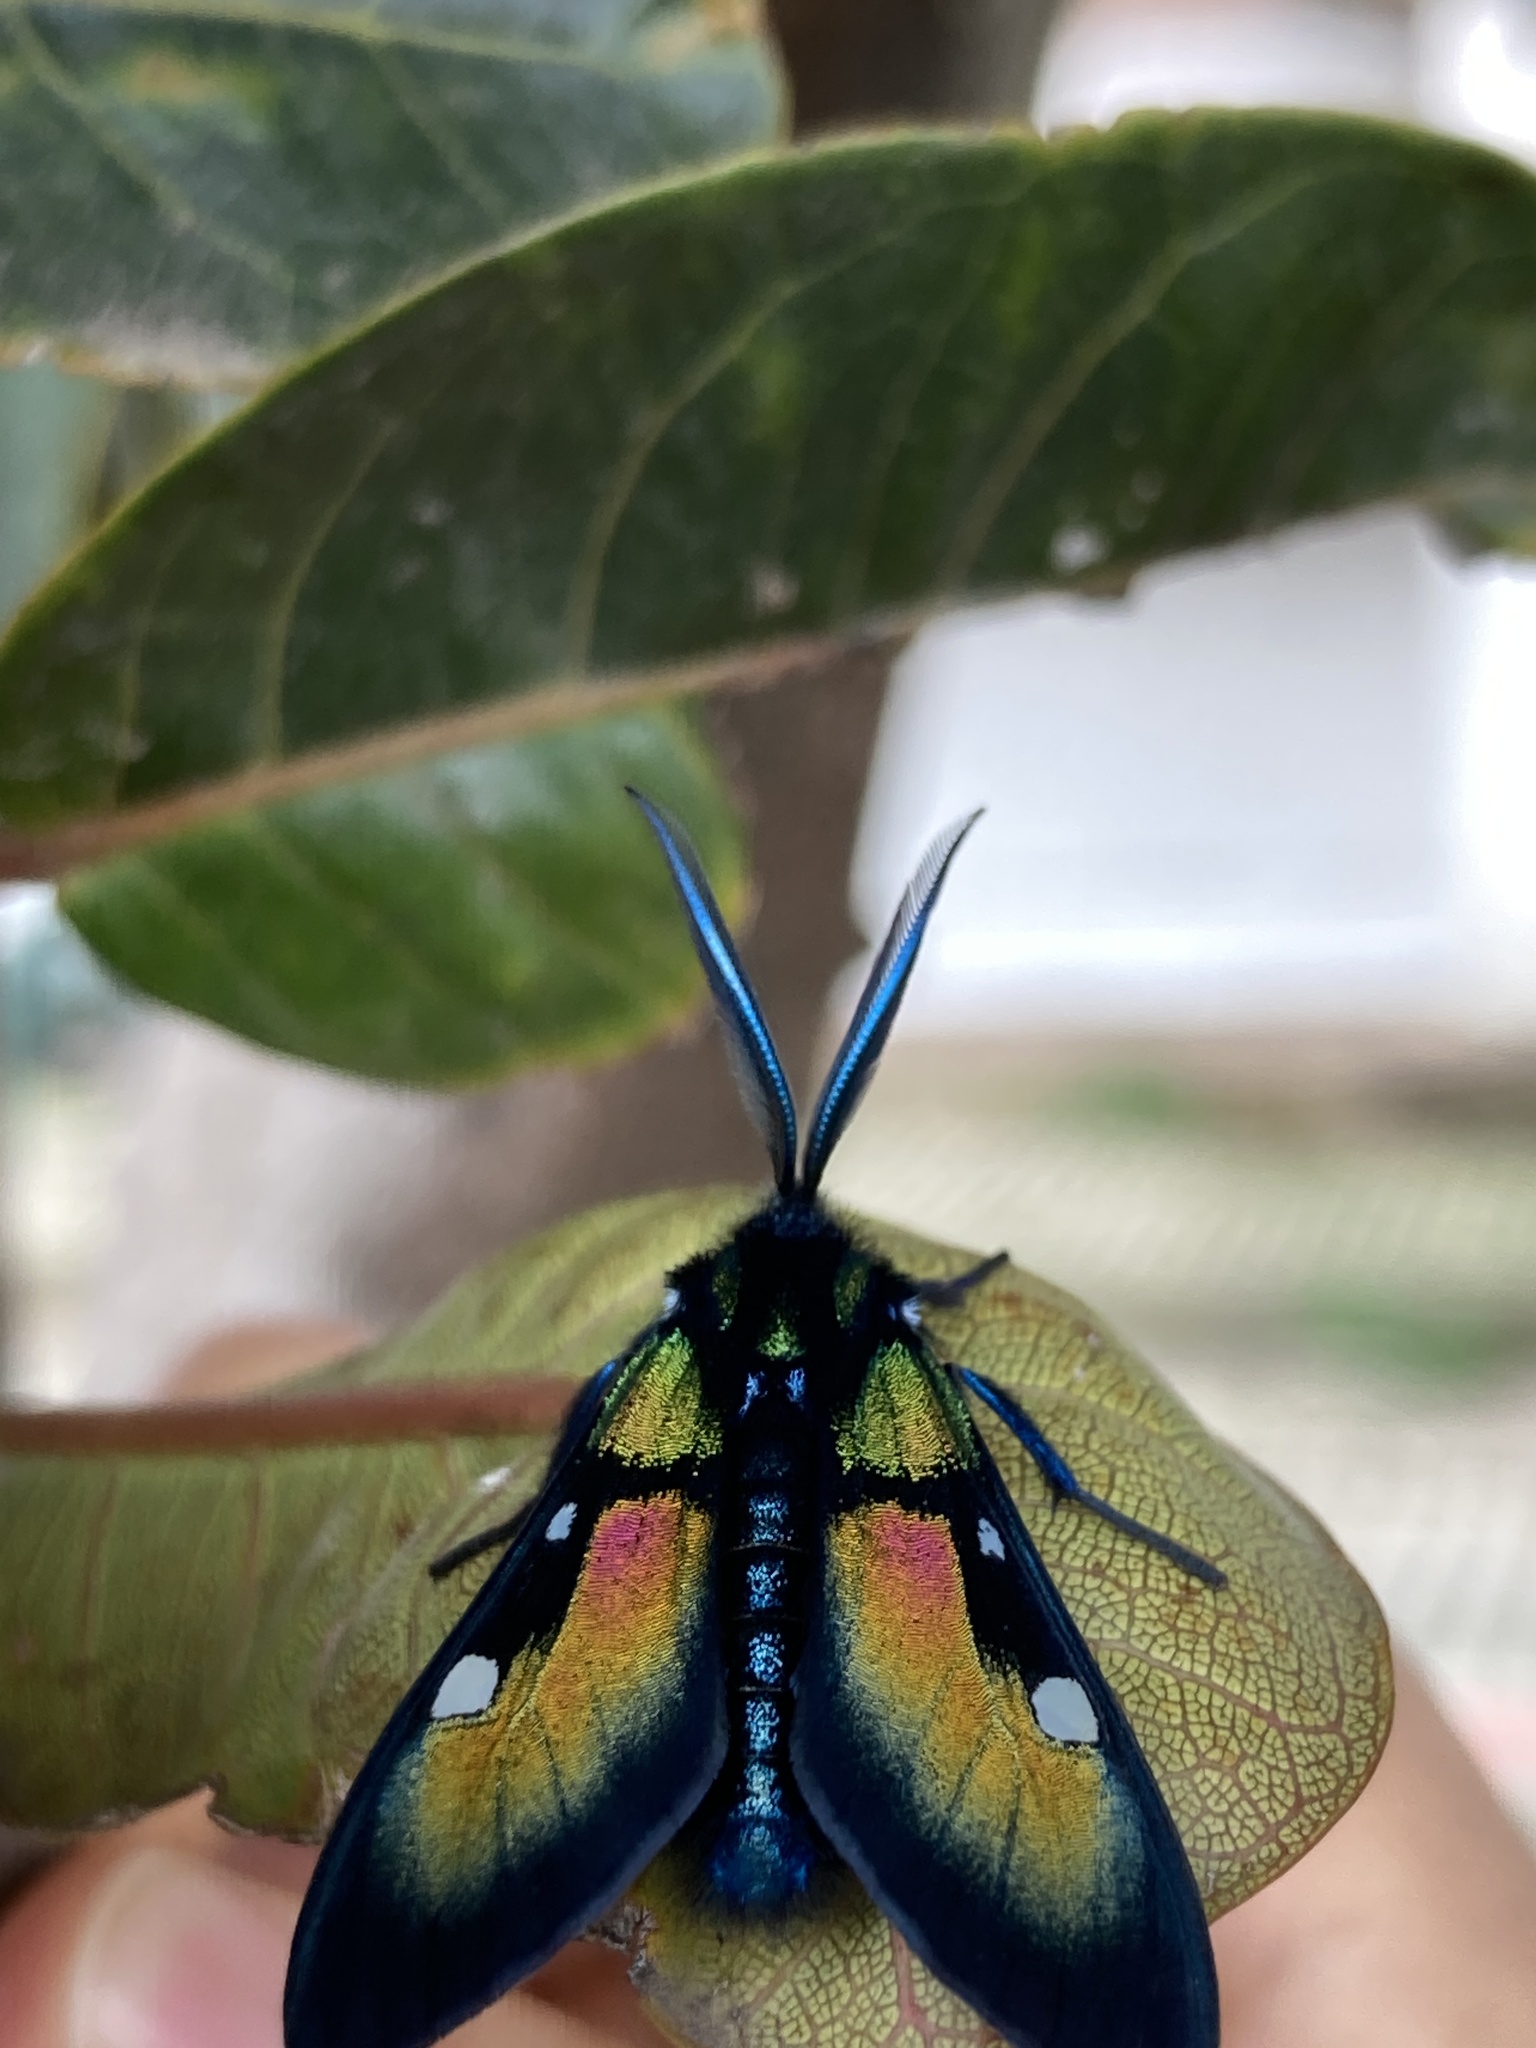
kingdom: Animalia
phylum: Arthropoda
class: Insecta
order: Lepidoptera
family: Erebidae
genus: Chrysocale
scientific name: Chrysocale ignita
